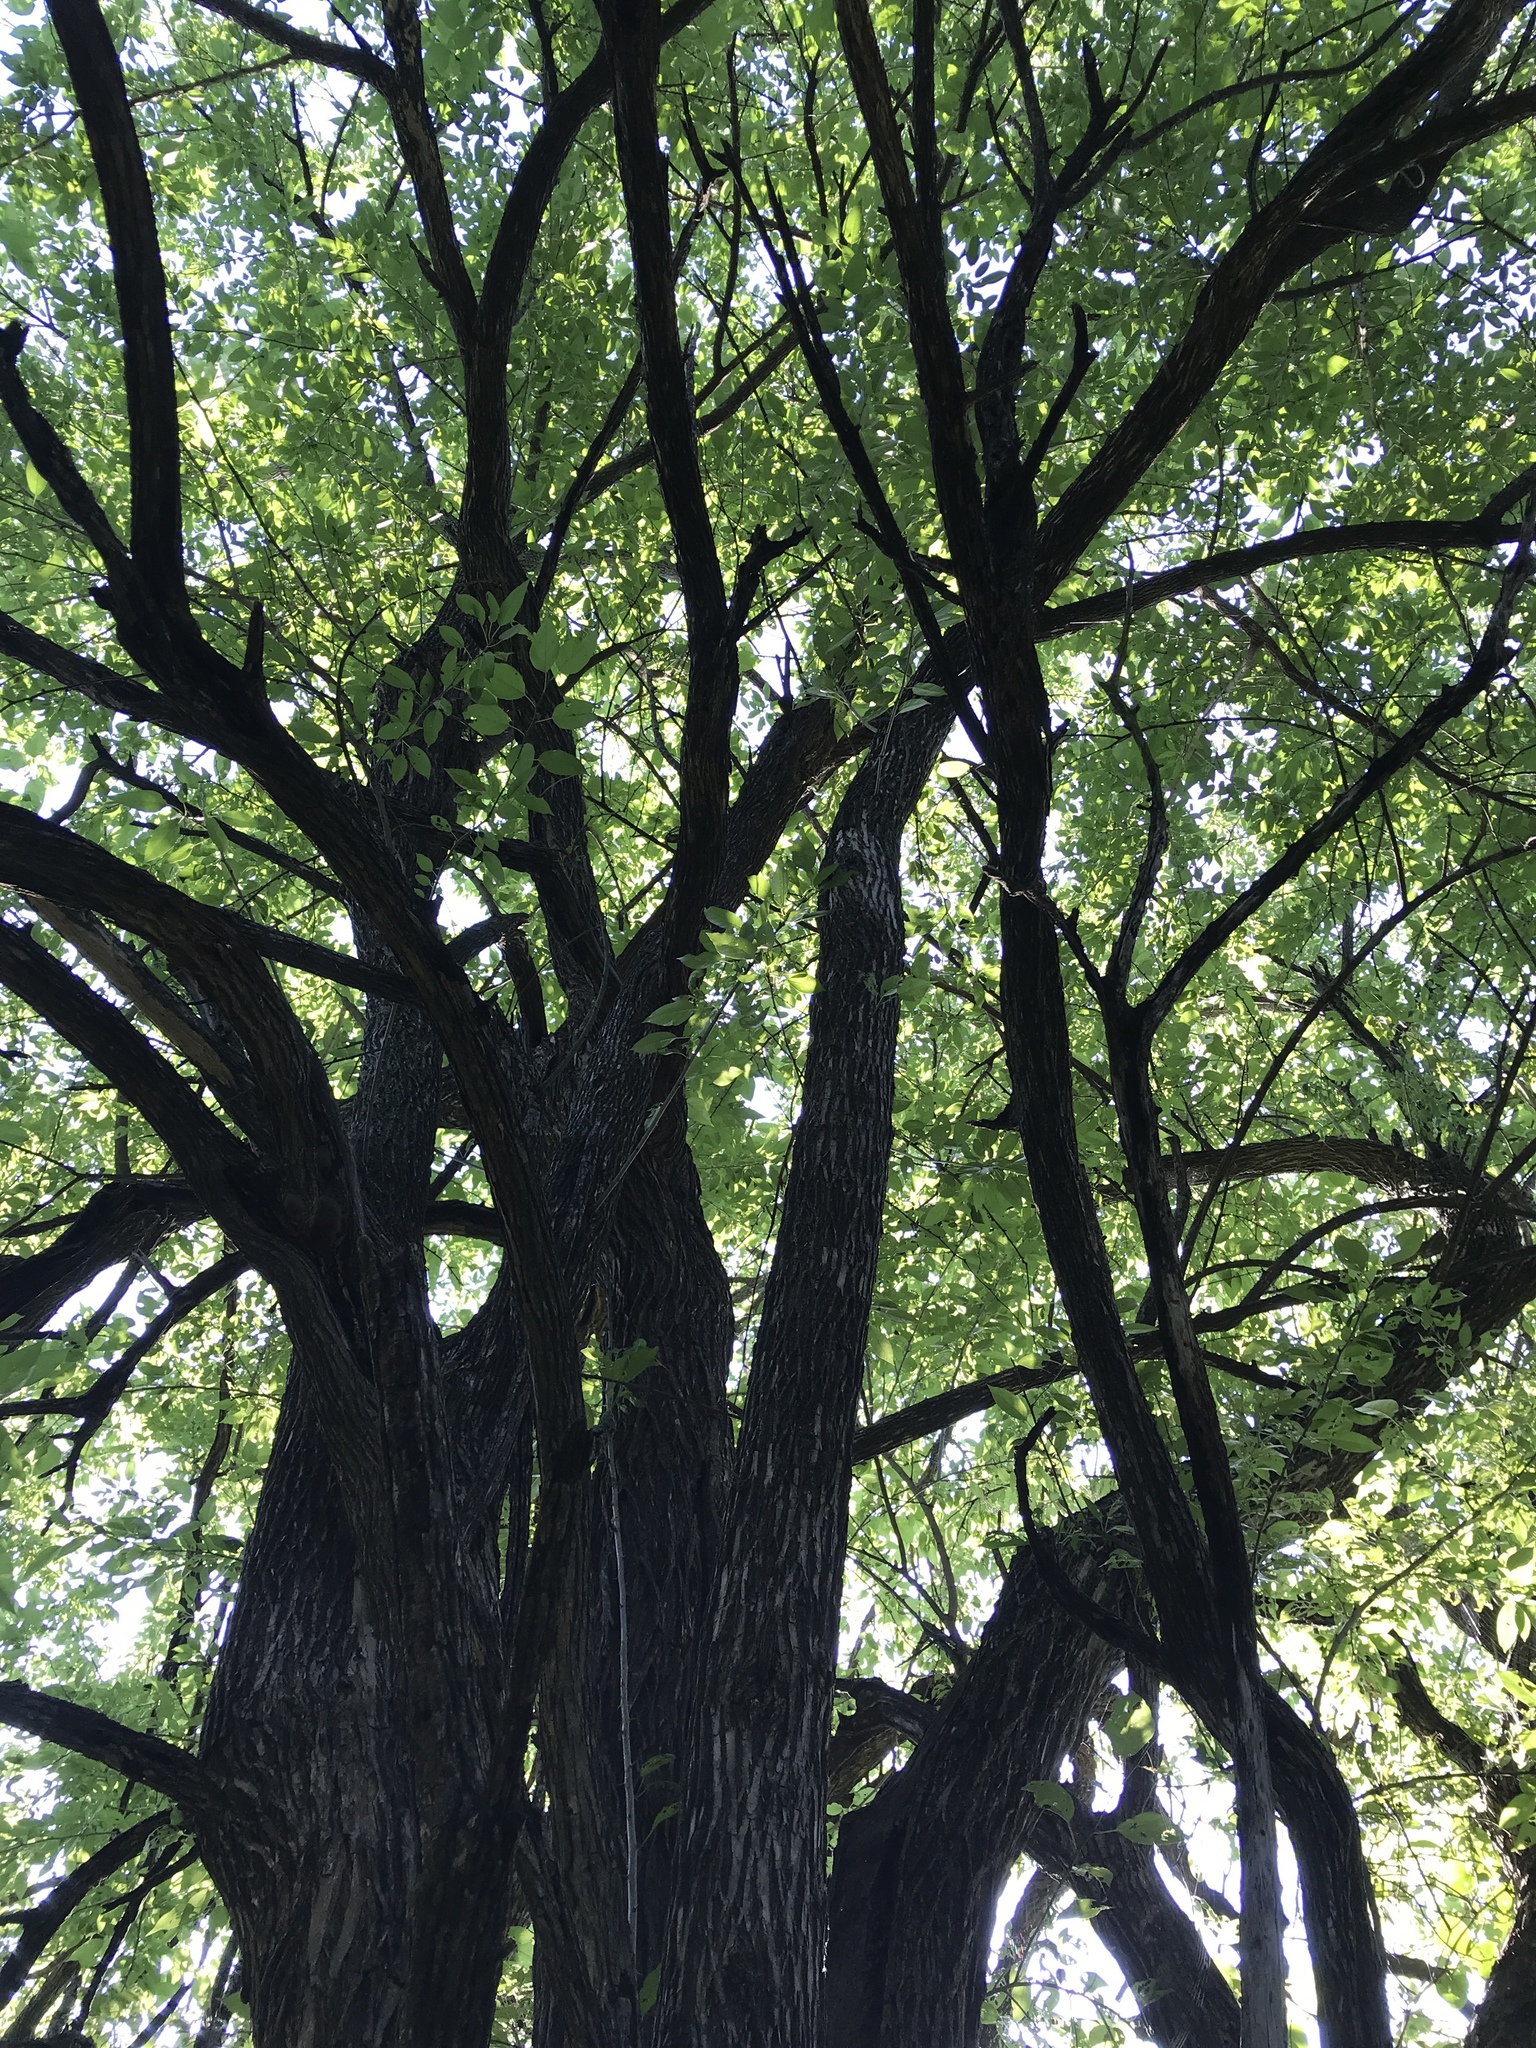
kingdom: Plantae
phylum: Tracheophyta
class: Magnoliopsida
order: Rosales
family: Moraceae
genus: Maclura
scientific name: Maclura pomifera
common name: Osage-orange
